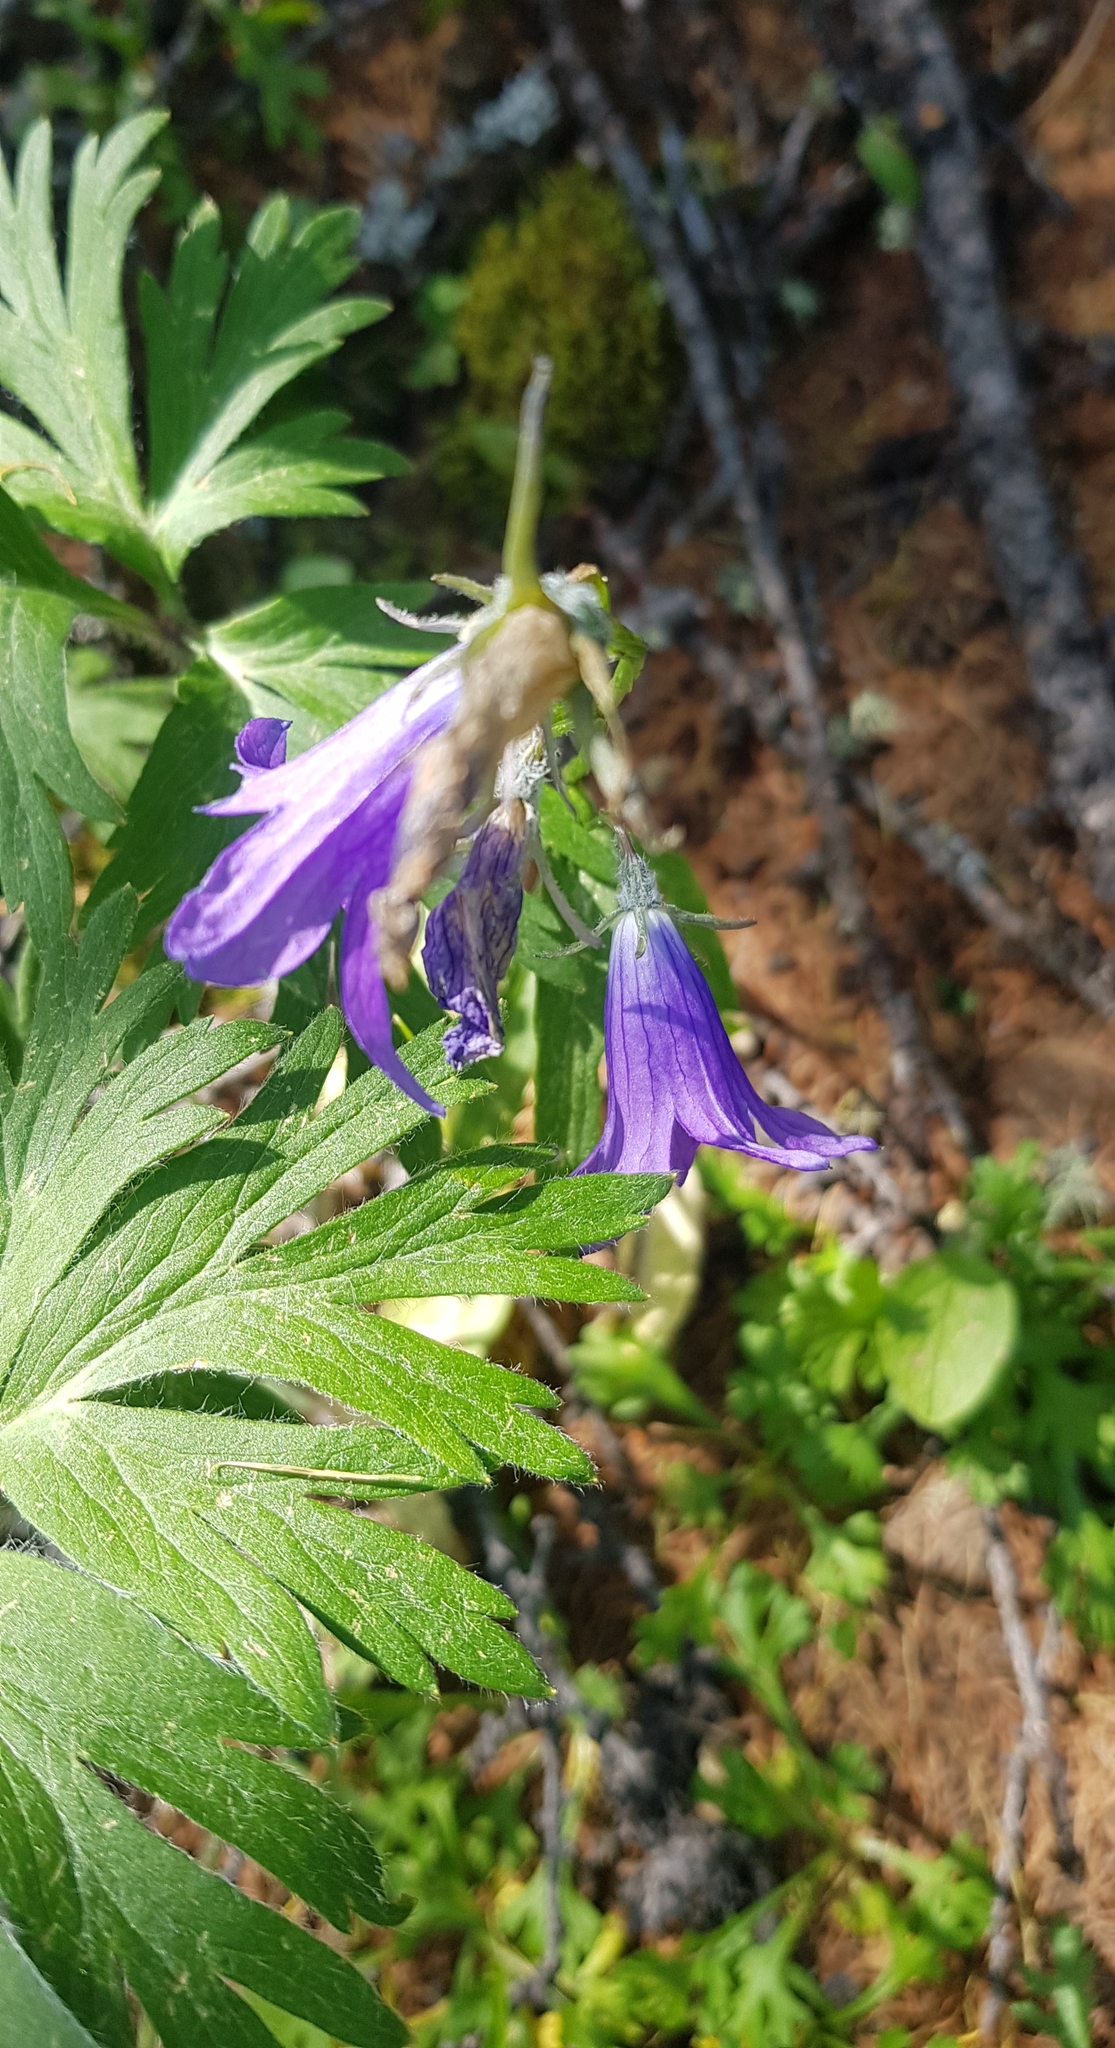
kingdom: Plantae
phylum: Tracheophyta
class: Magnoliopsida
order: Asterales
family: Campanulaceae
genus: Campanula
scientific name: Campanula stevenii
